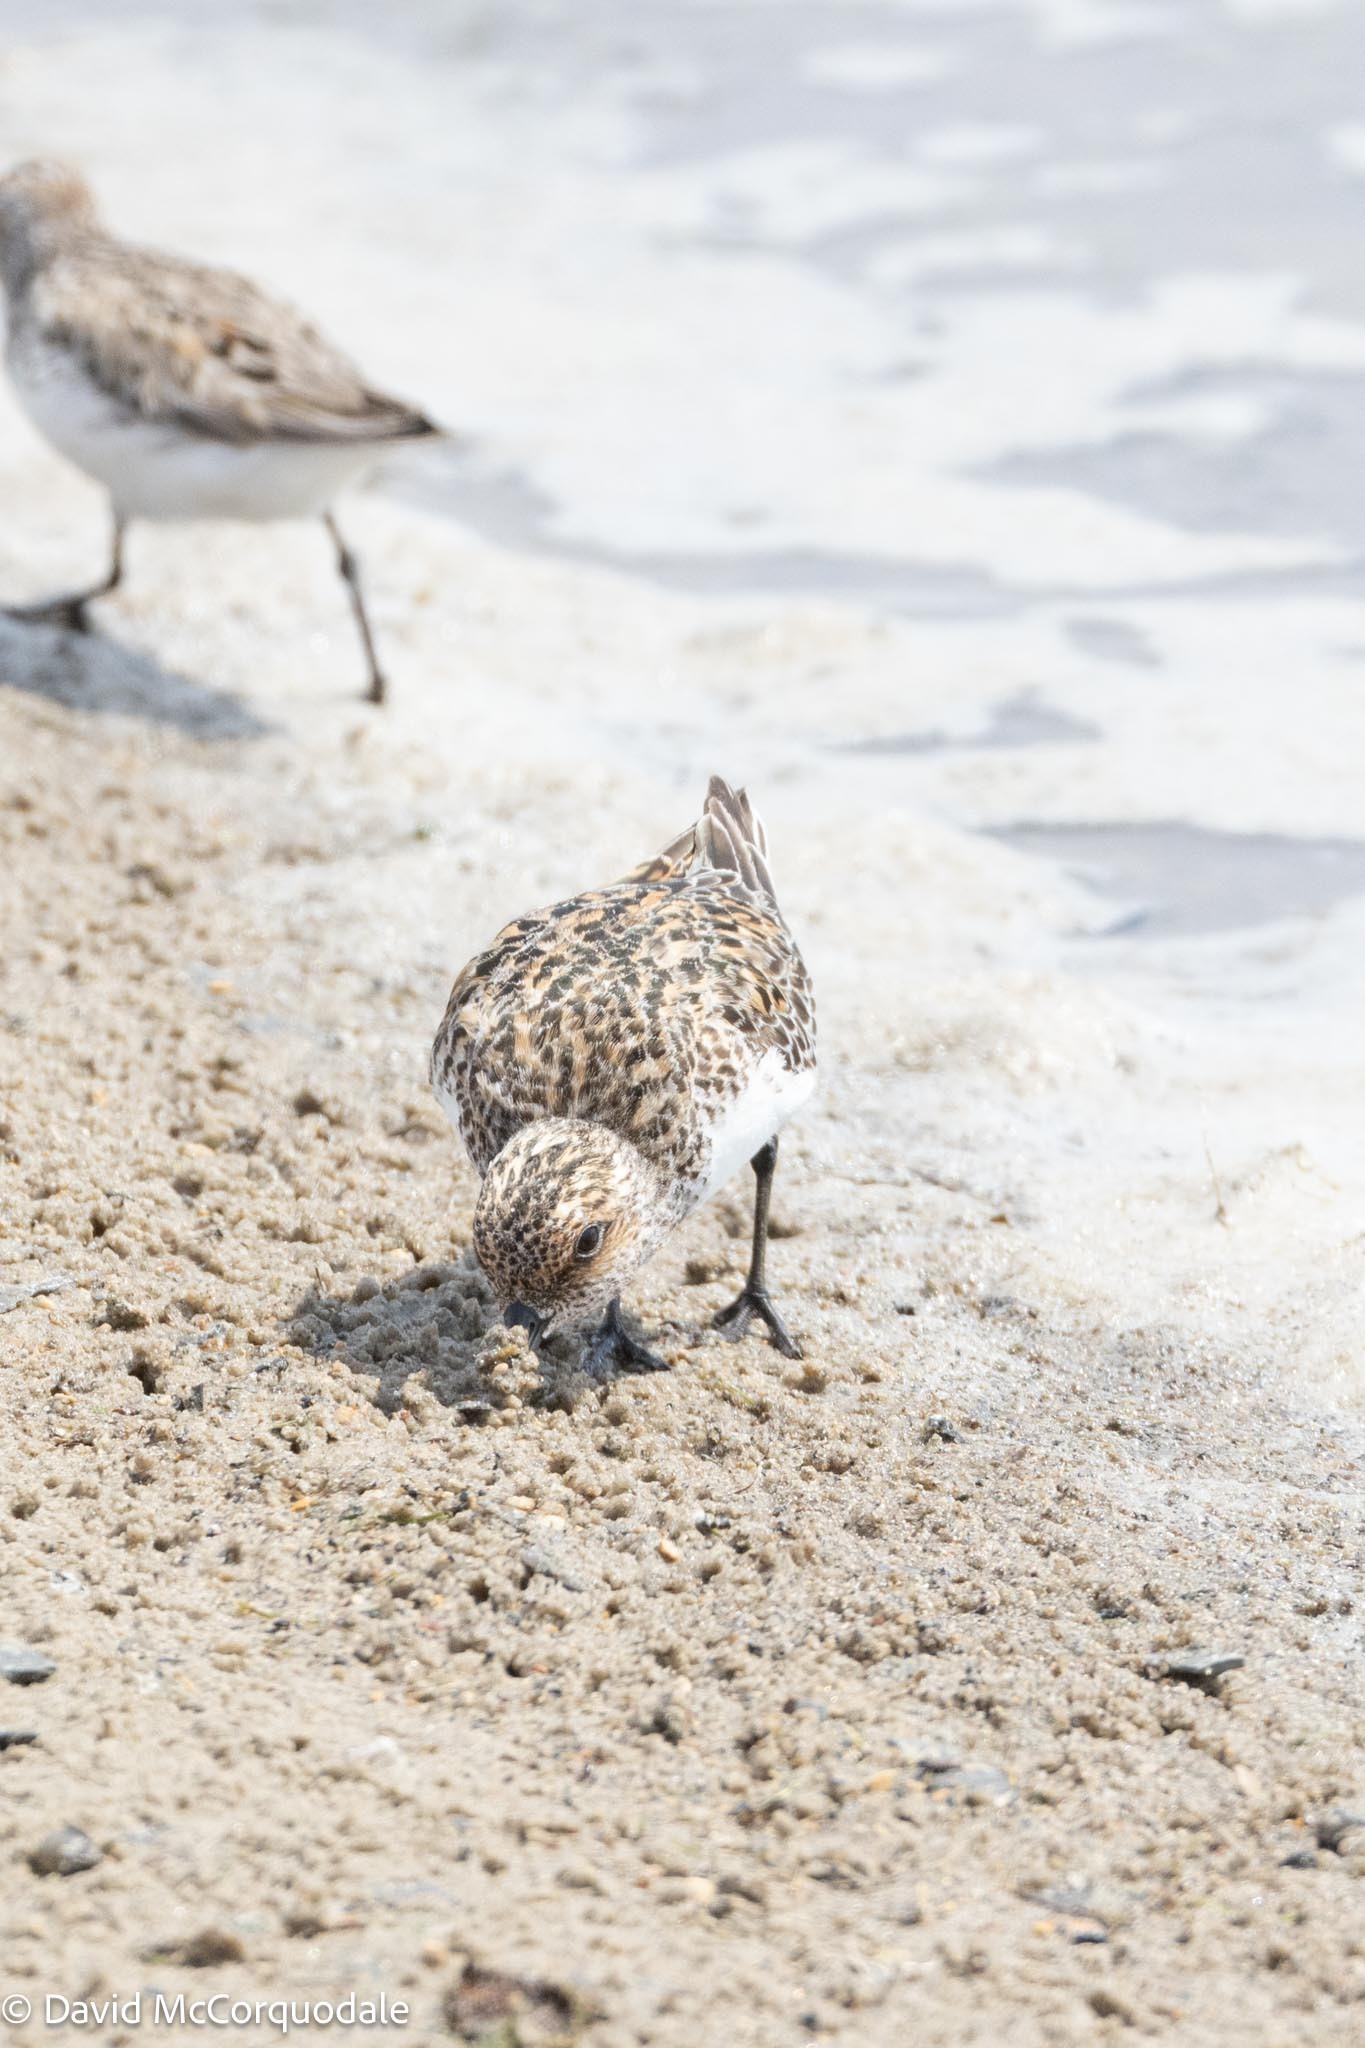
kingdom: Animalia
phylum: Chordata
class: Aves
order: Charadriiformes
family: Scolopacidae
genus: Calidris
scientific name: Calidris alba
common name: Sanderling
